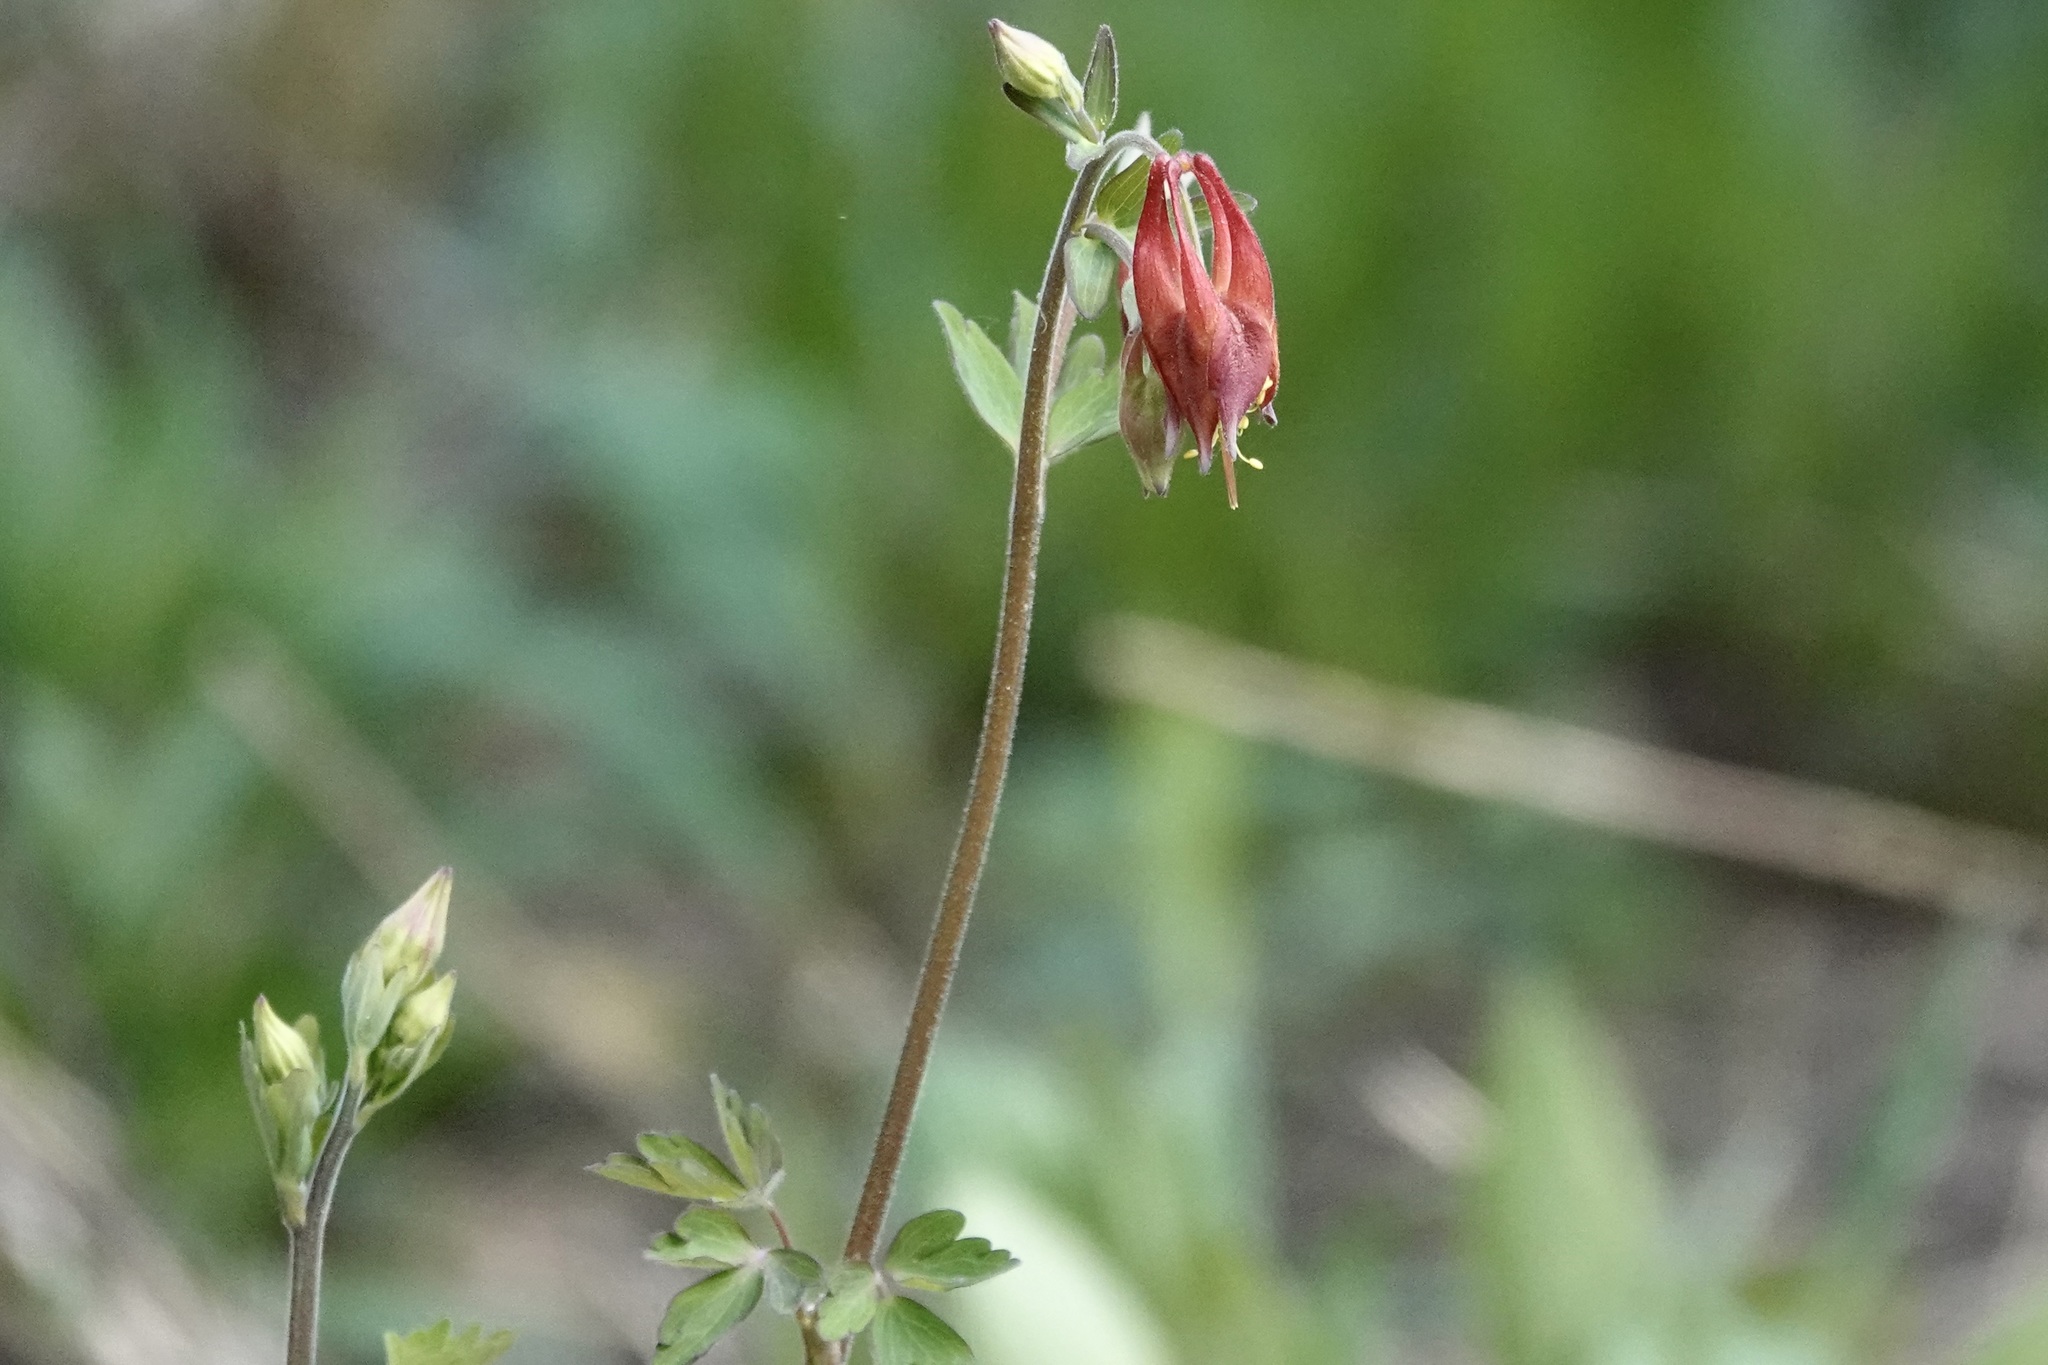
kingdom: Plantae
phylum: Tracheophyta
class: Magnoliopsida
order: Ranunculales
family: Ranunculaceae
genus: Aquilegia
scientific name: Aquilegia canadensis
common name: American columbine
